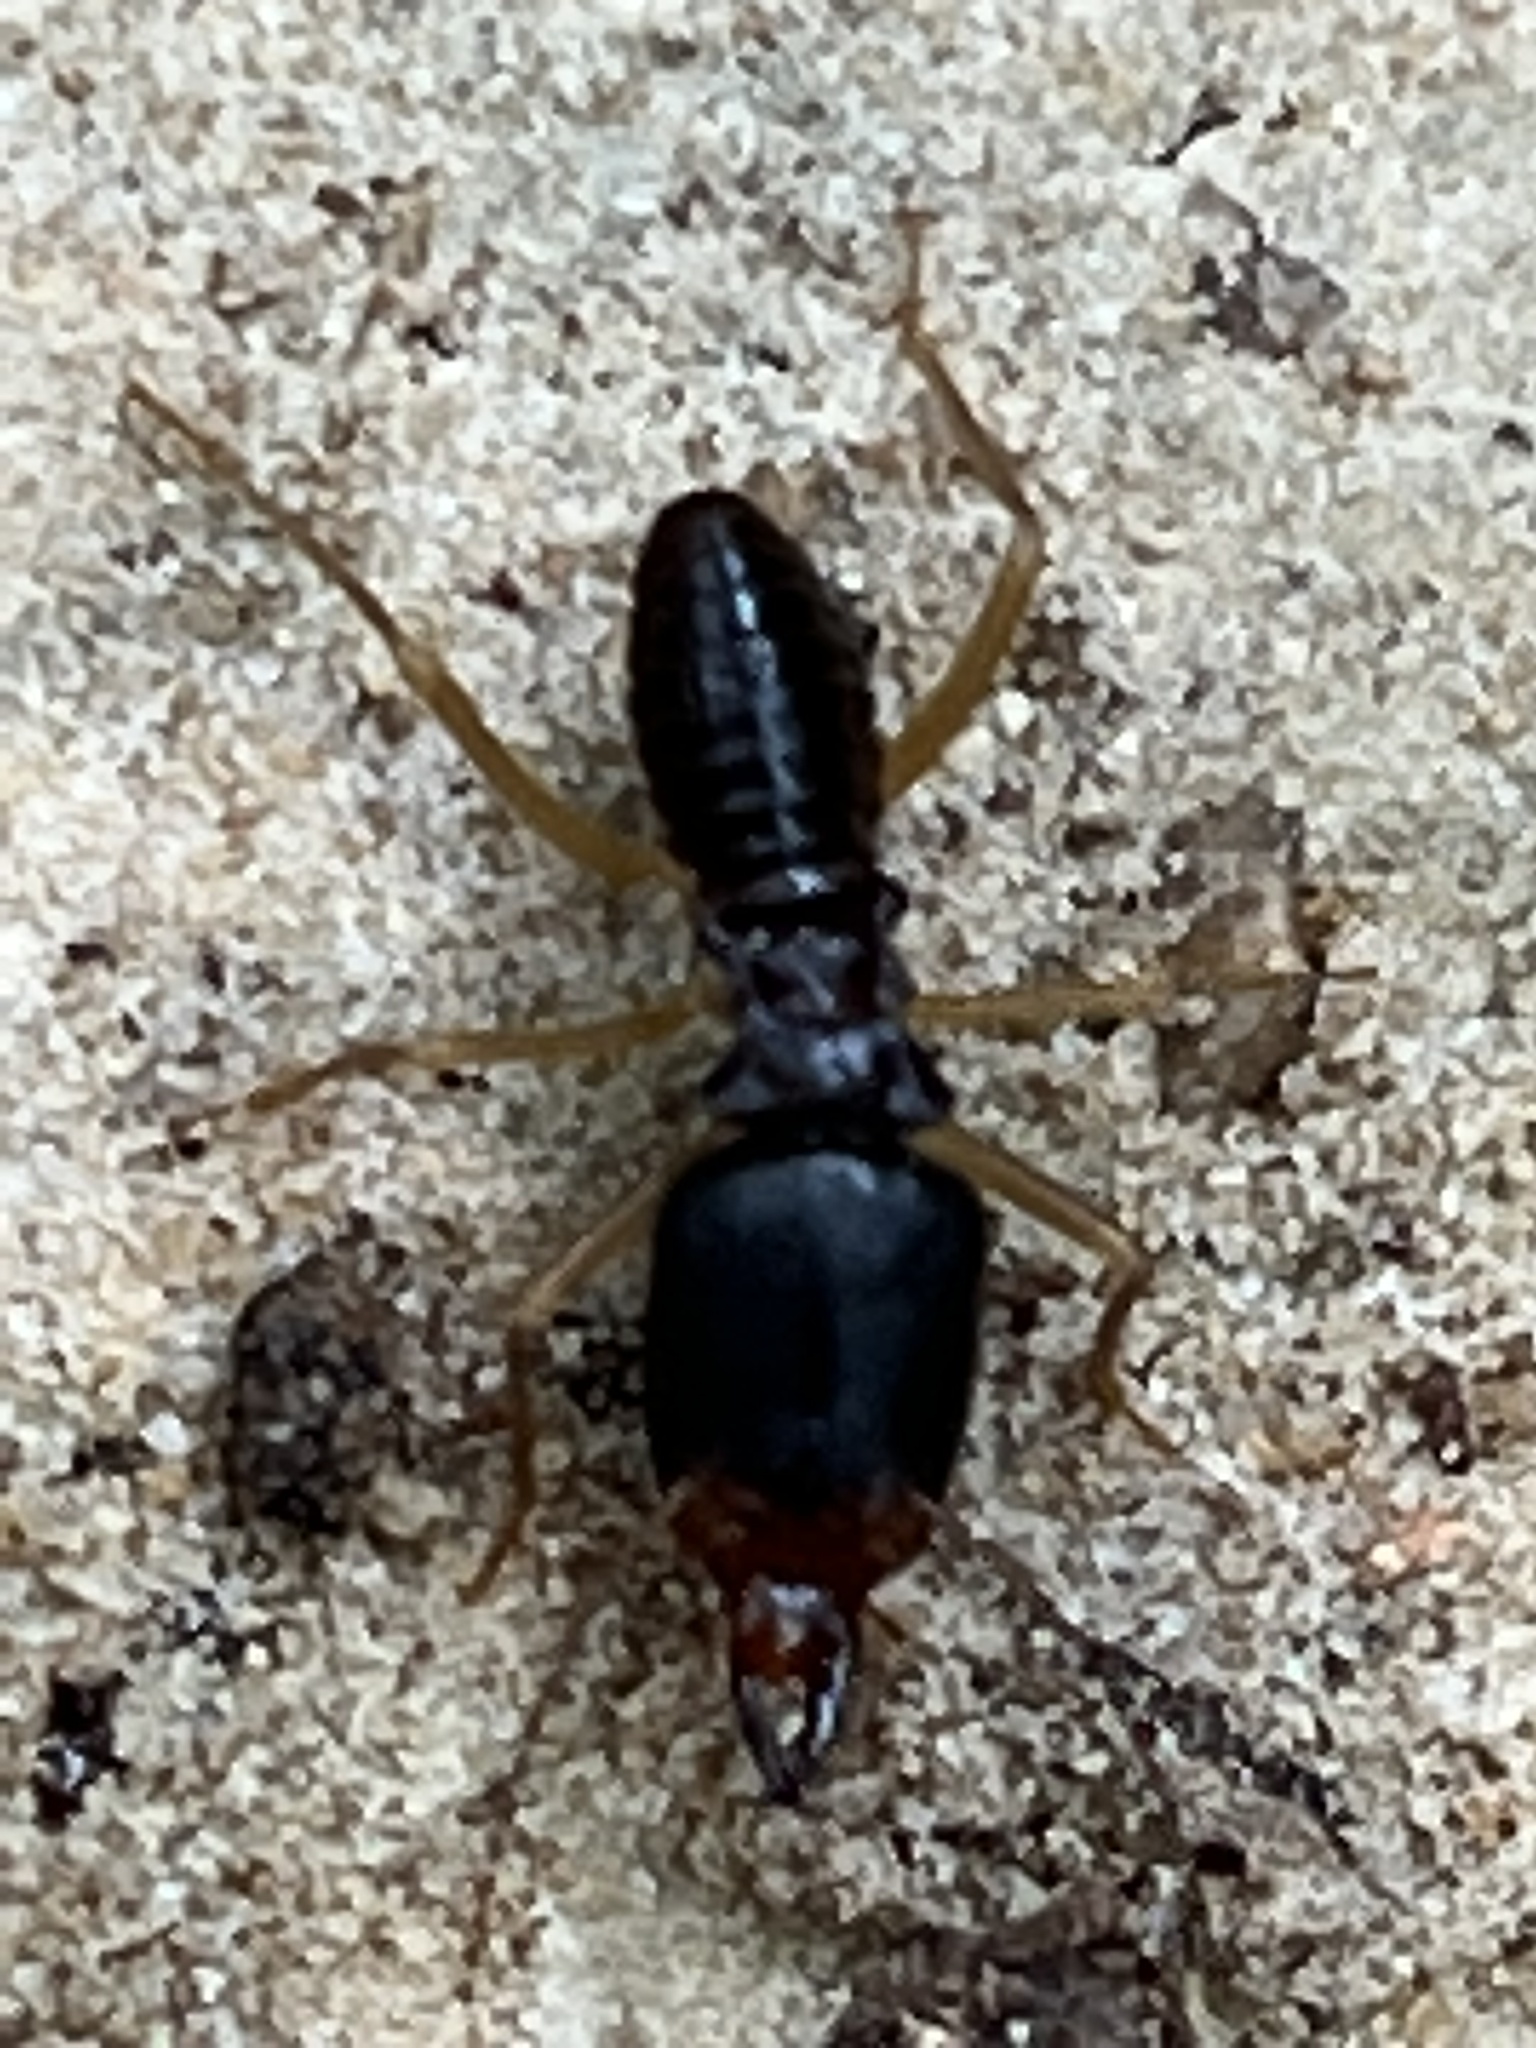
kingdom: Animalia
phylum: Arthropoda
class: Insecta
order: Blattodea
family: Termitidae
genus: Macrotermes
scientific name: Macrotermes carbonarius
